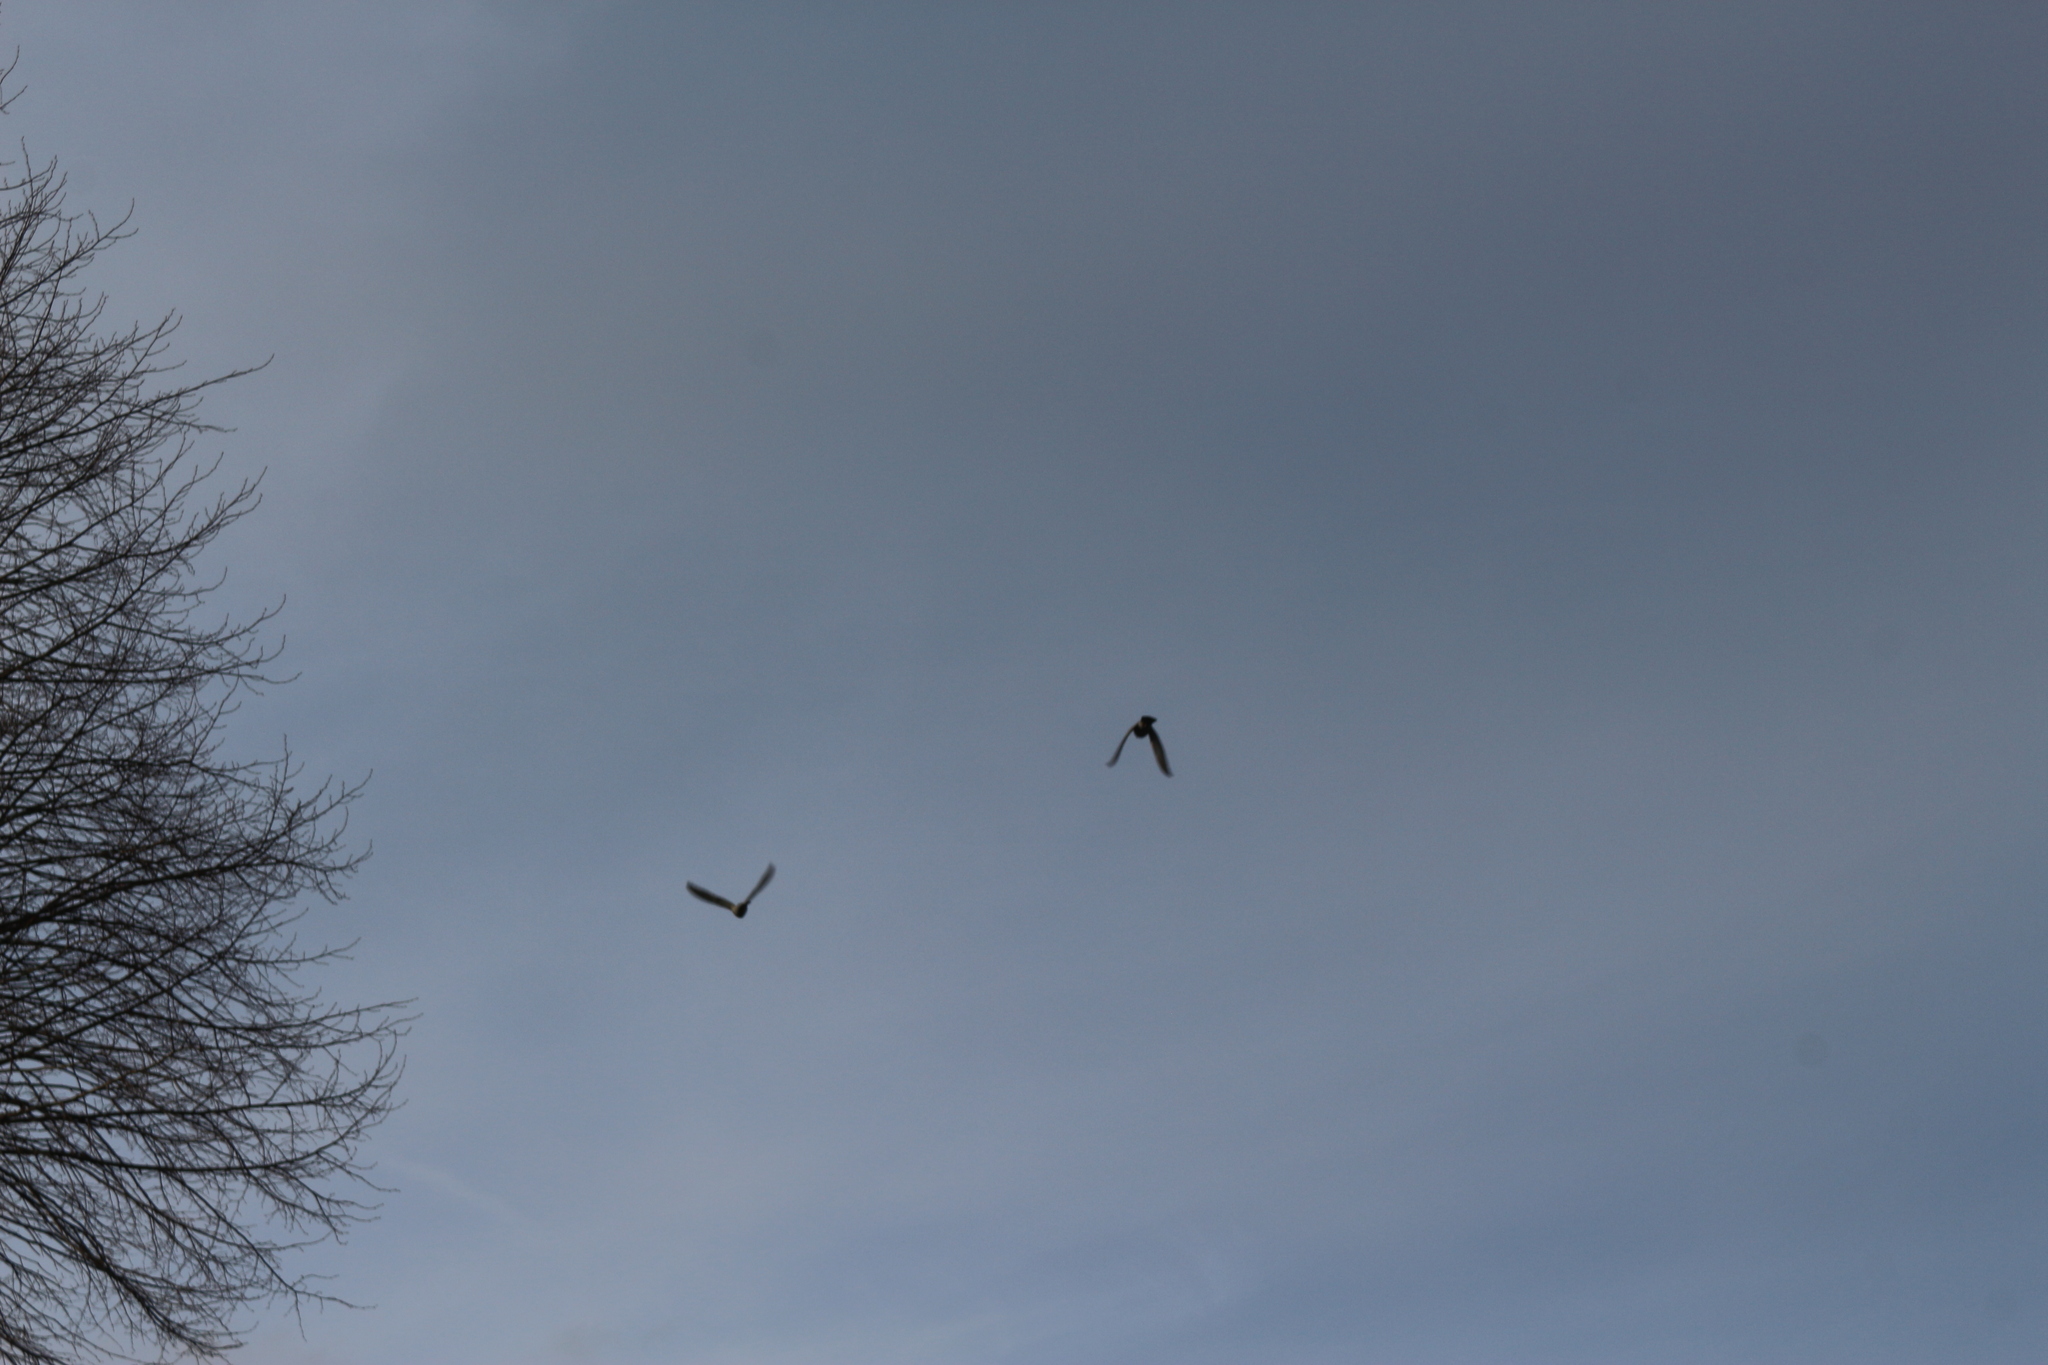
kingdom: Animalia
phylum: Chordata
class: Aves
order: Columbiformes
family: Columbidae
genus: Columba
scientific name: Columba palumbus
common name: Common wood pigeon
